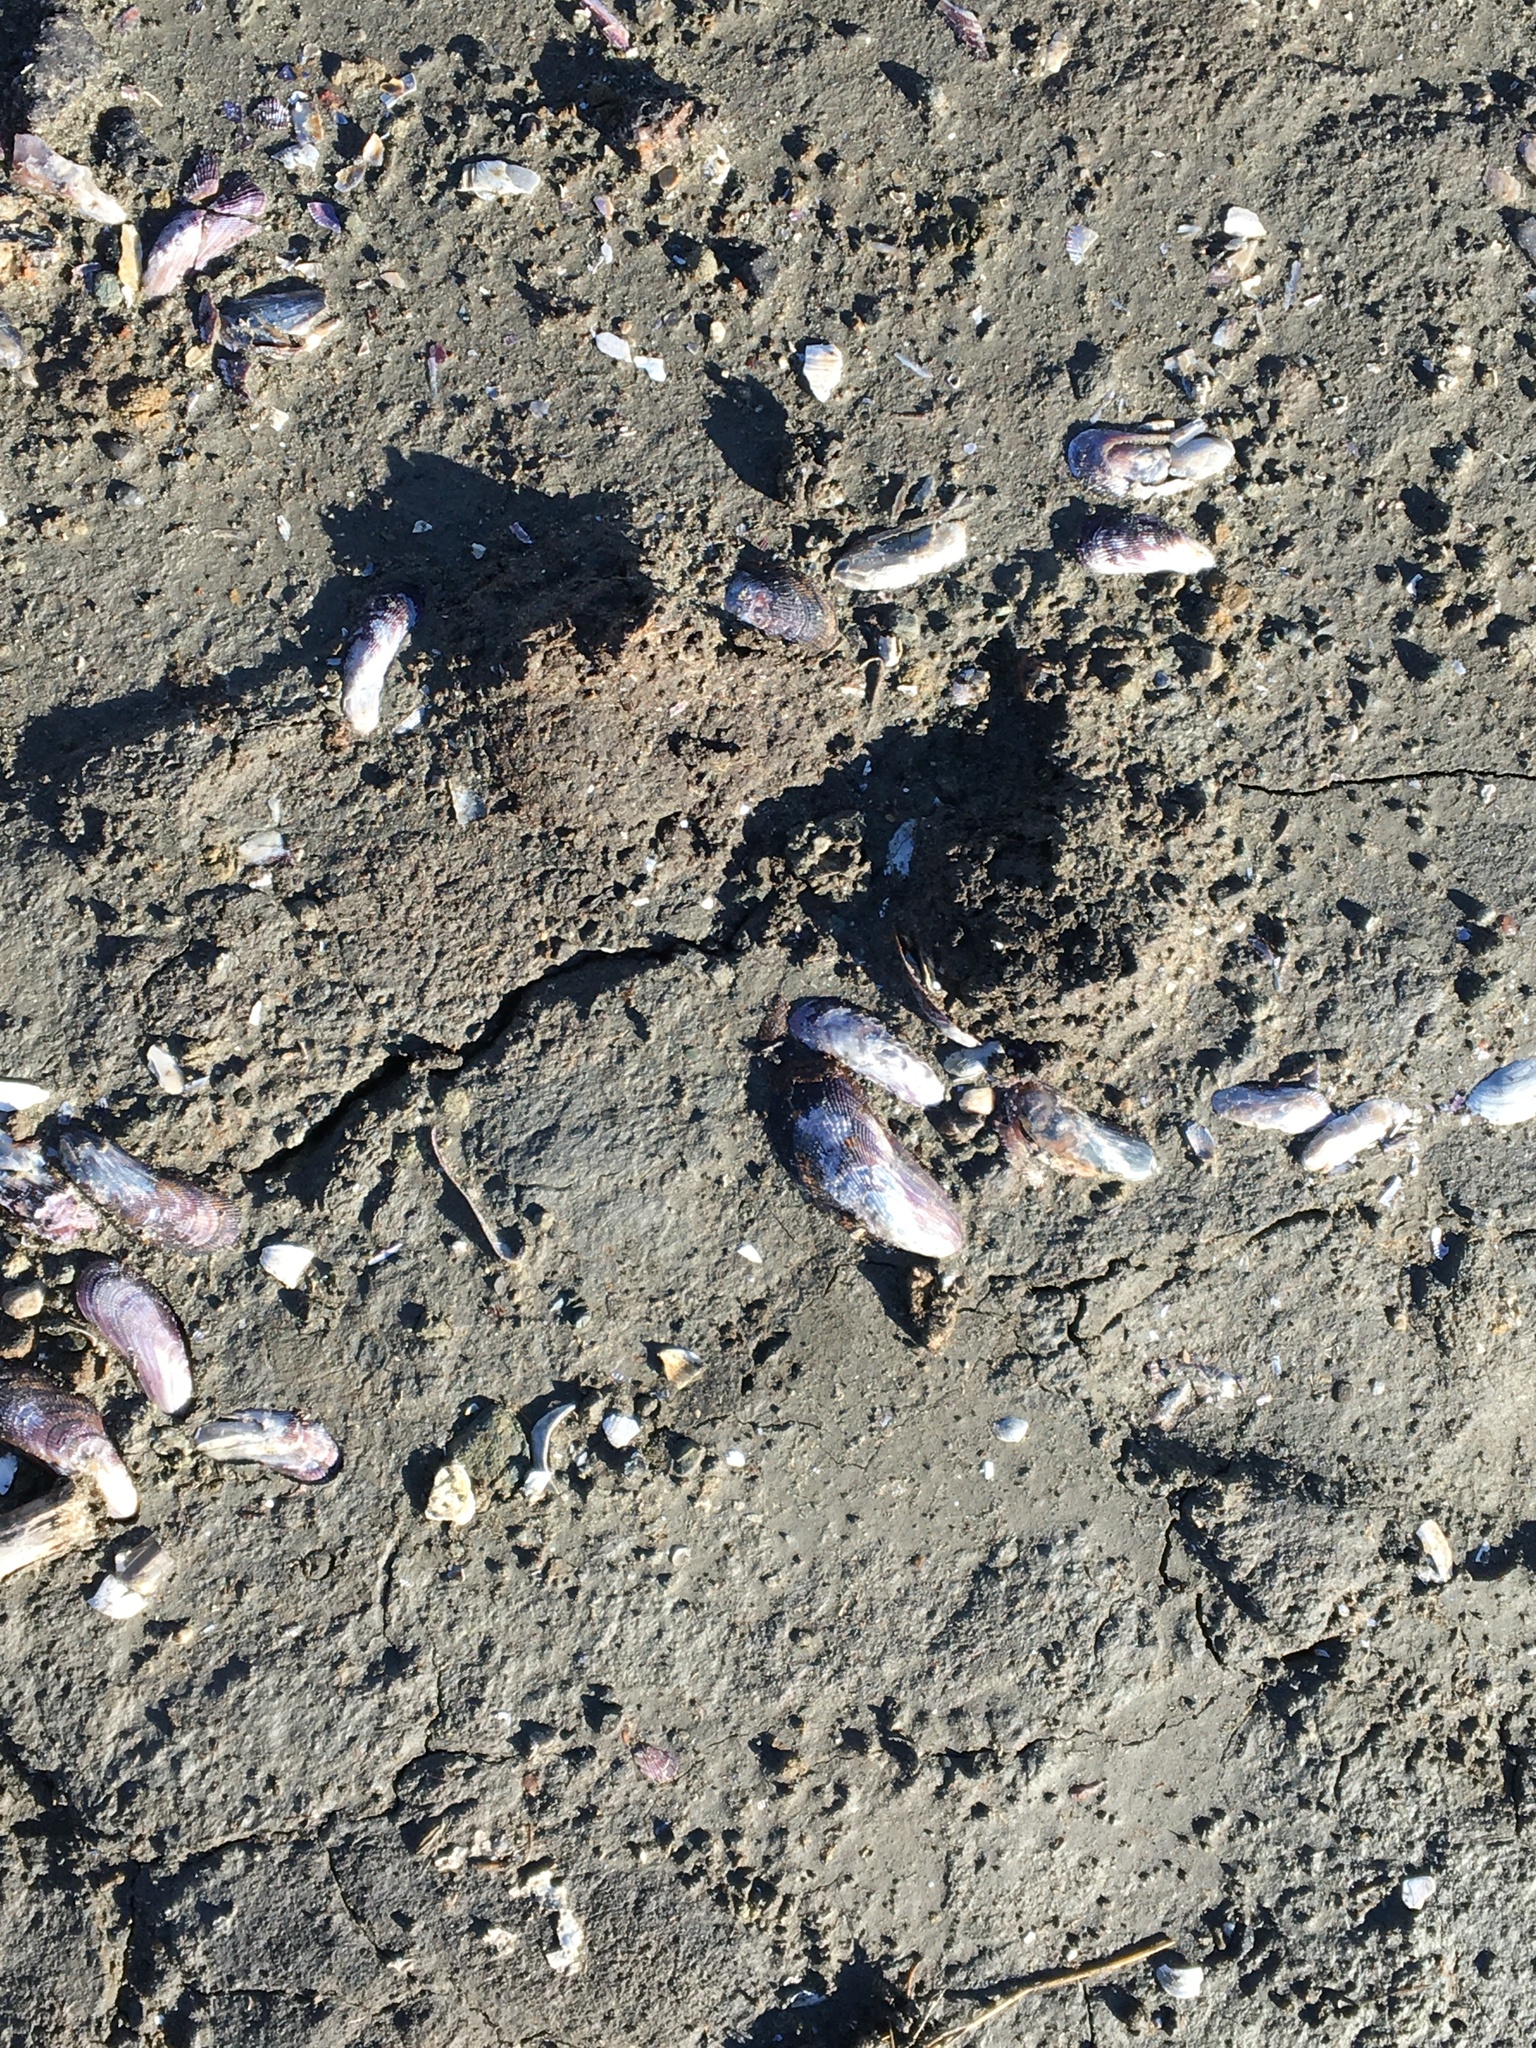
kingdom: Animalia
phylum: Mollusca
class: Bivalvia
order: Mytilida
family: Mytilidae
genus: Geukensia
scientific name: Geukensia demissa
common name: Ribbed mussel
